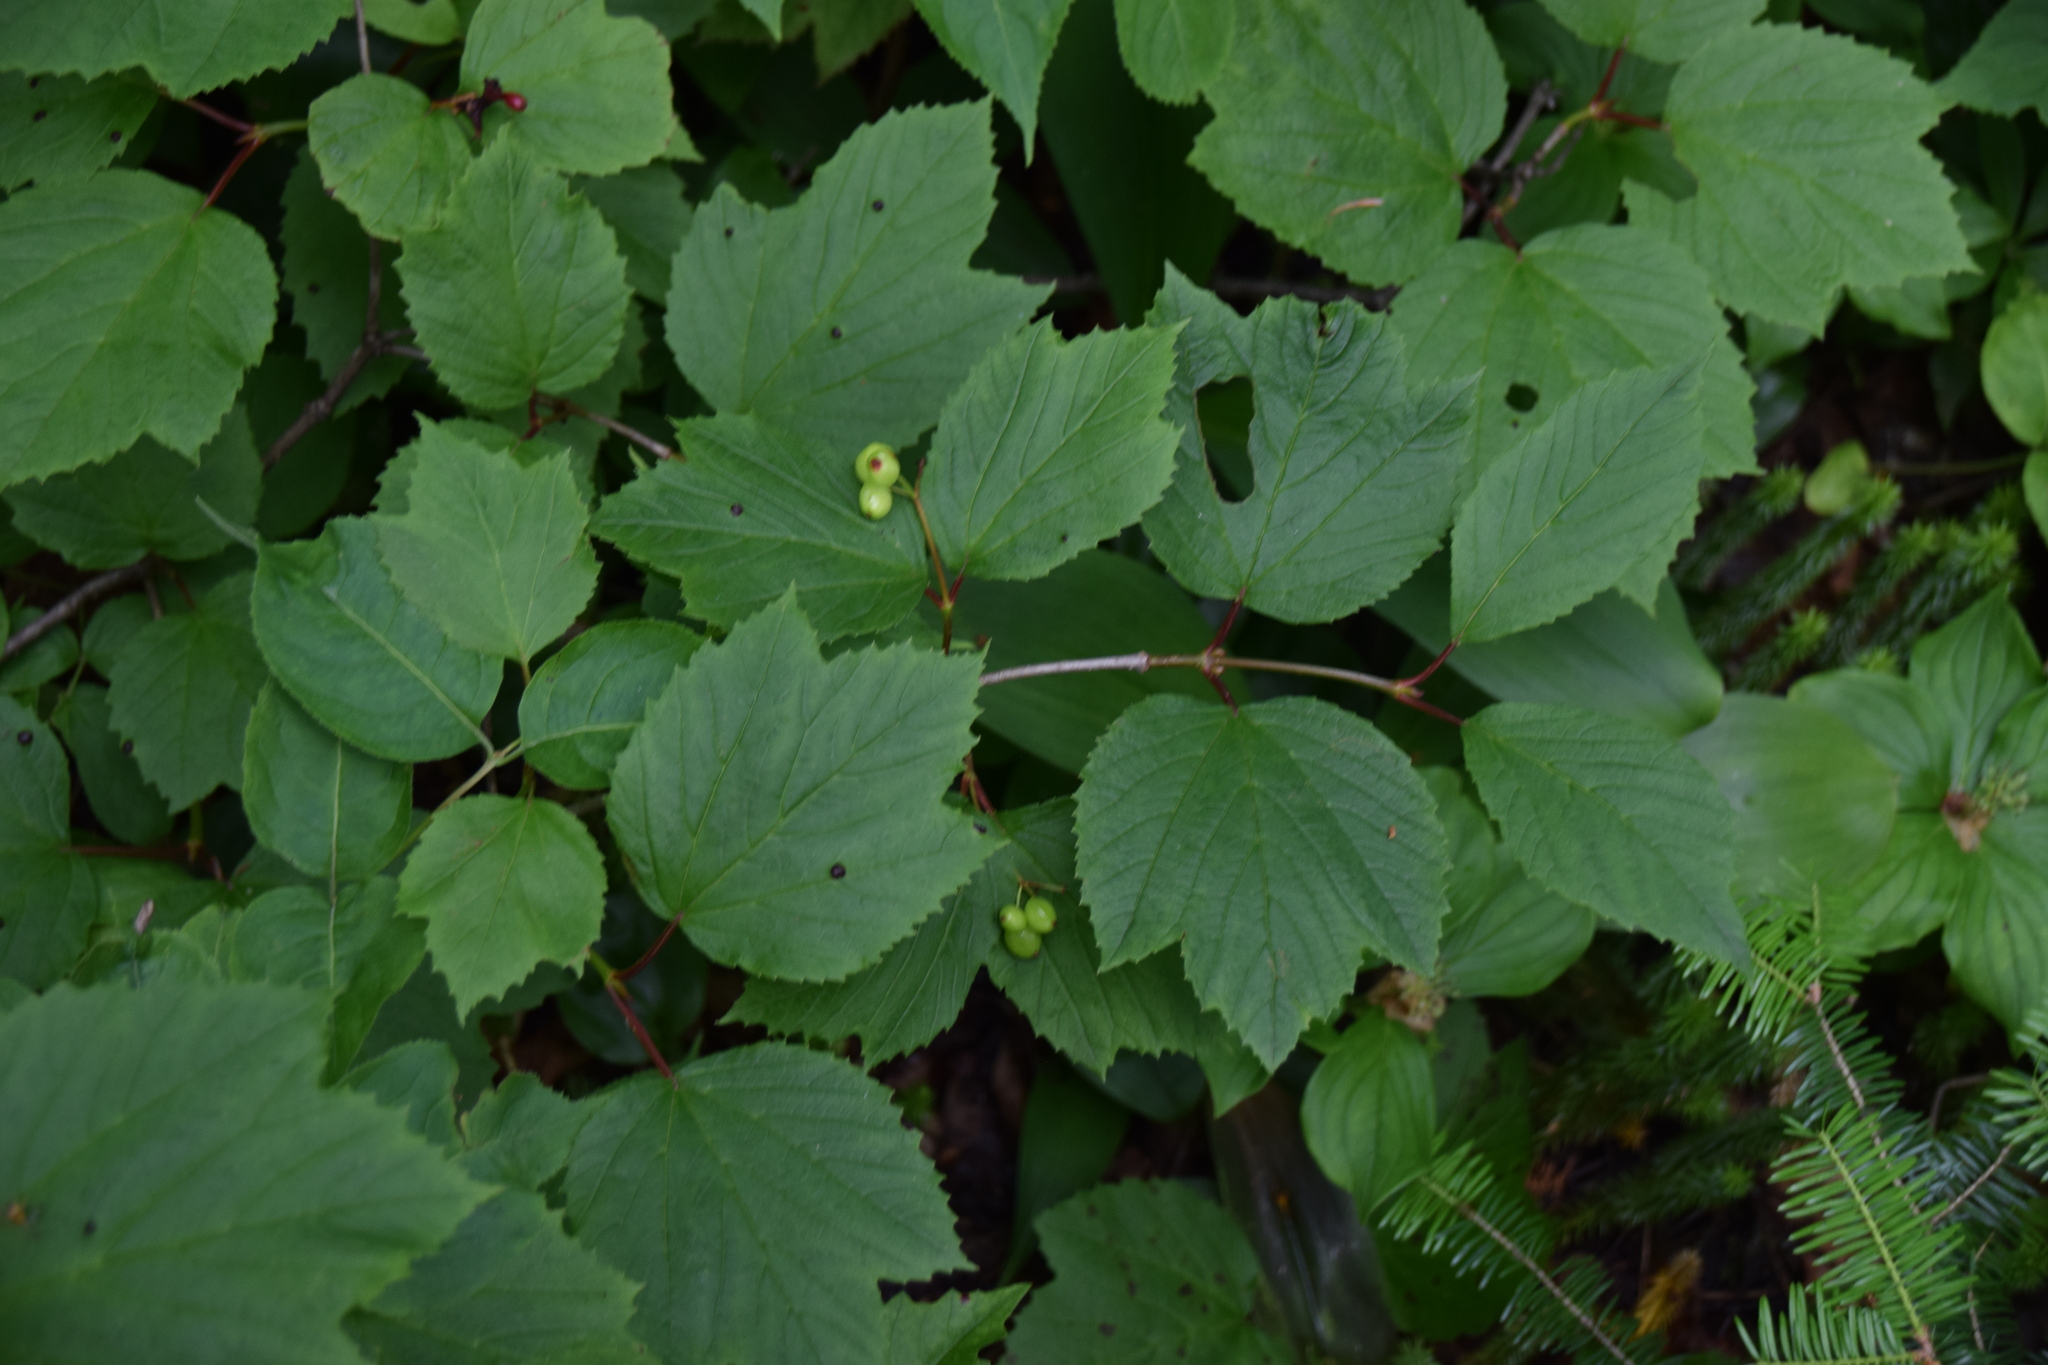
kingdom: Plantae
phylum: Tracheophyta
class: Magnoliopsida
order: Dipsacales
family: Viburnaceae
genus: Viburnum
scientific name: Viburnum edule
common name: Mooseberry
